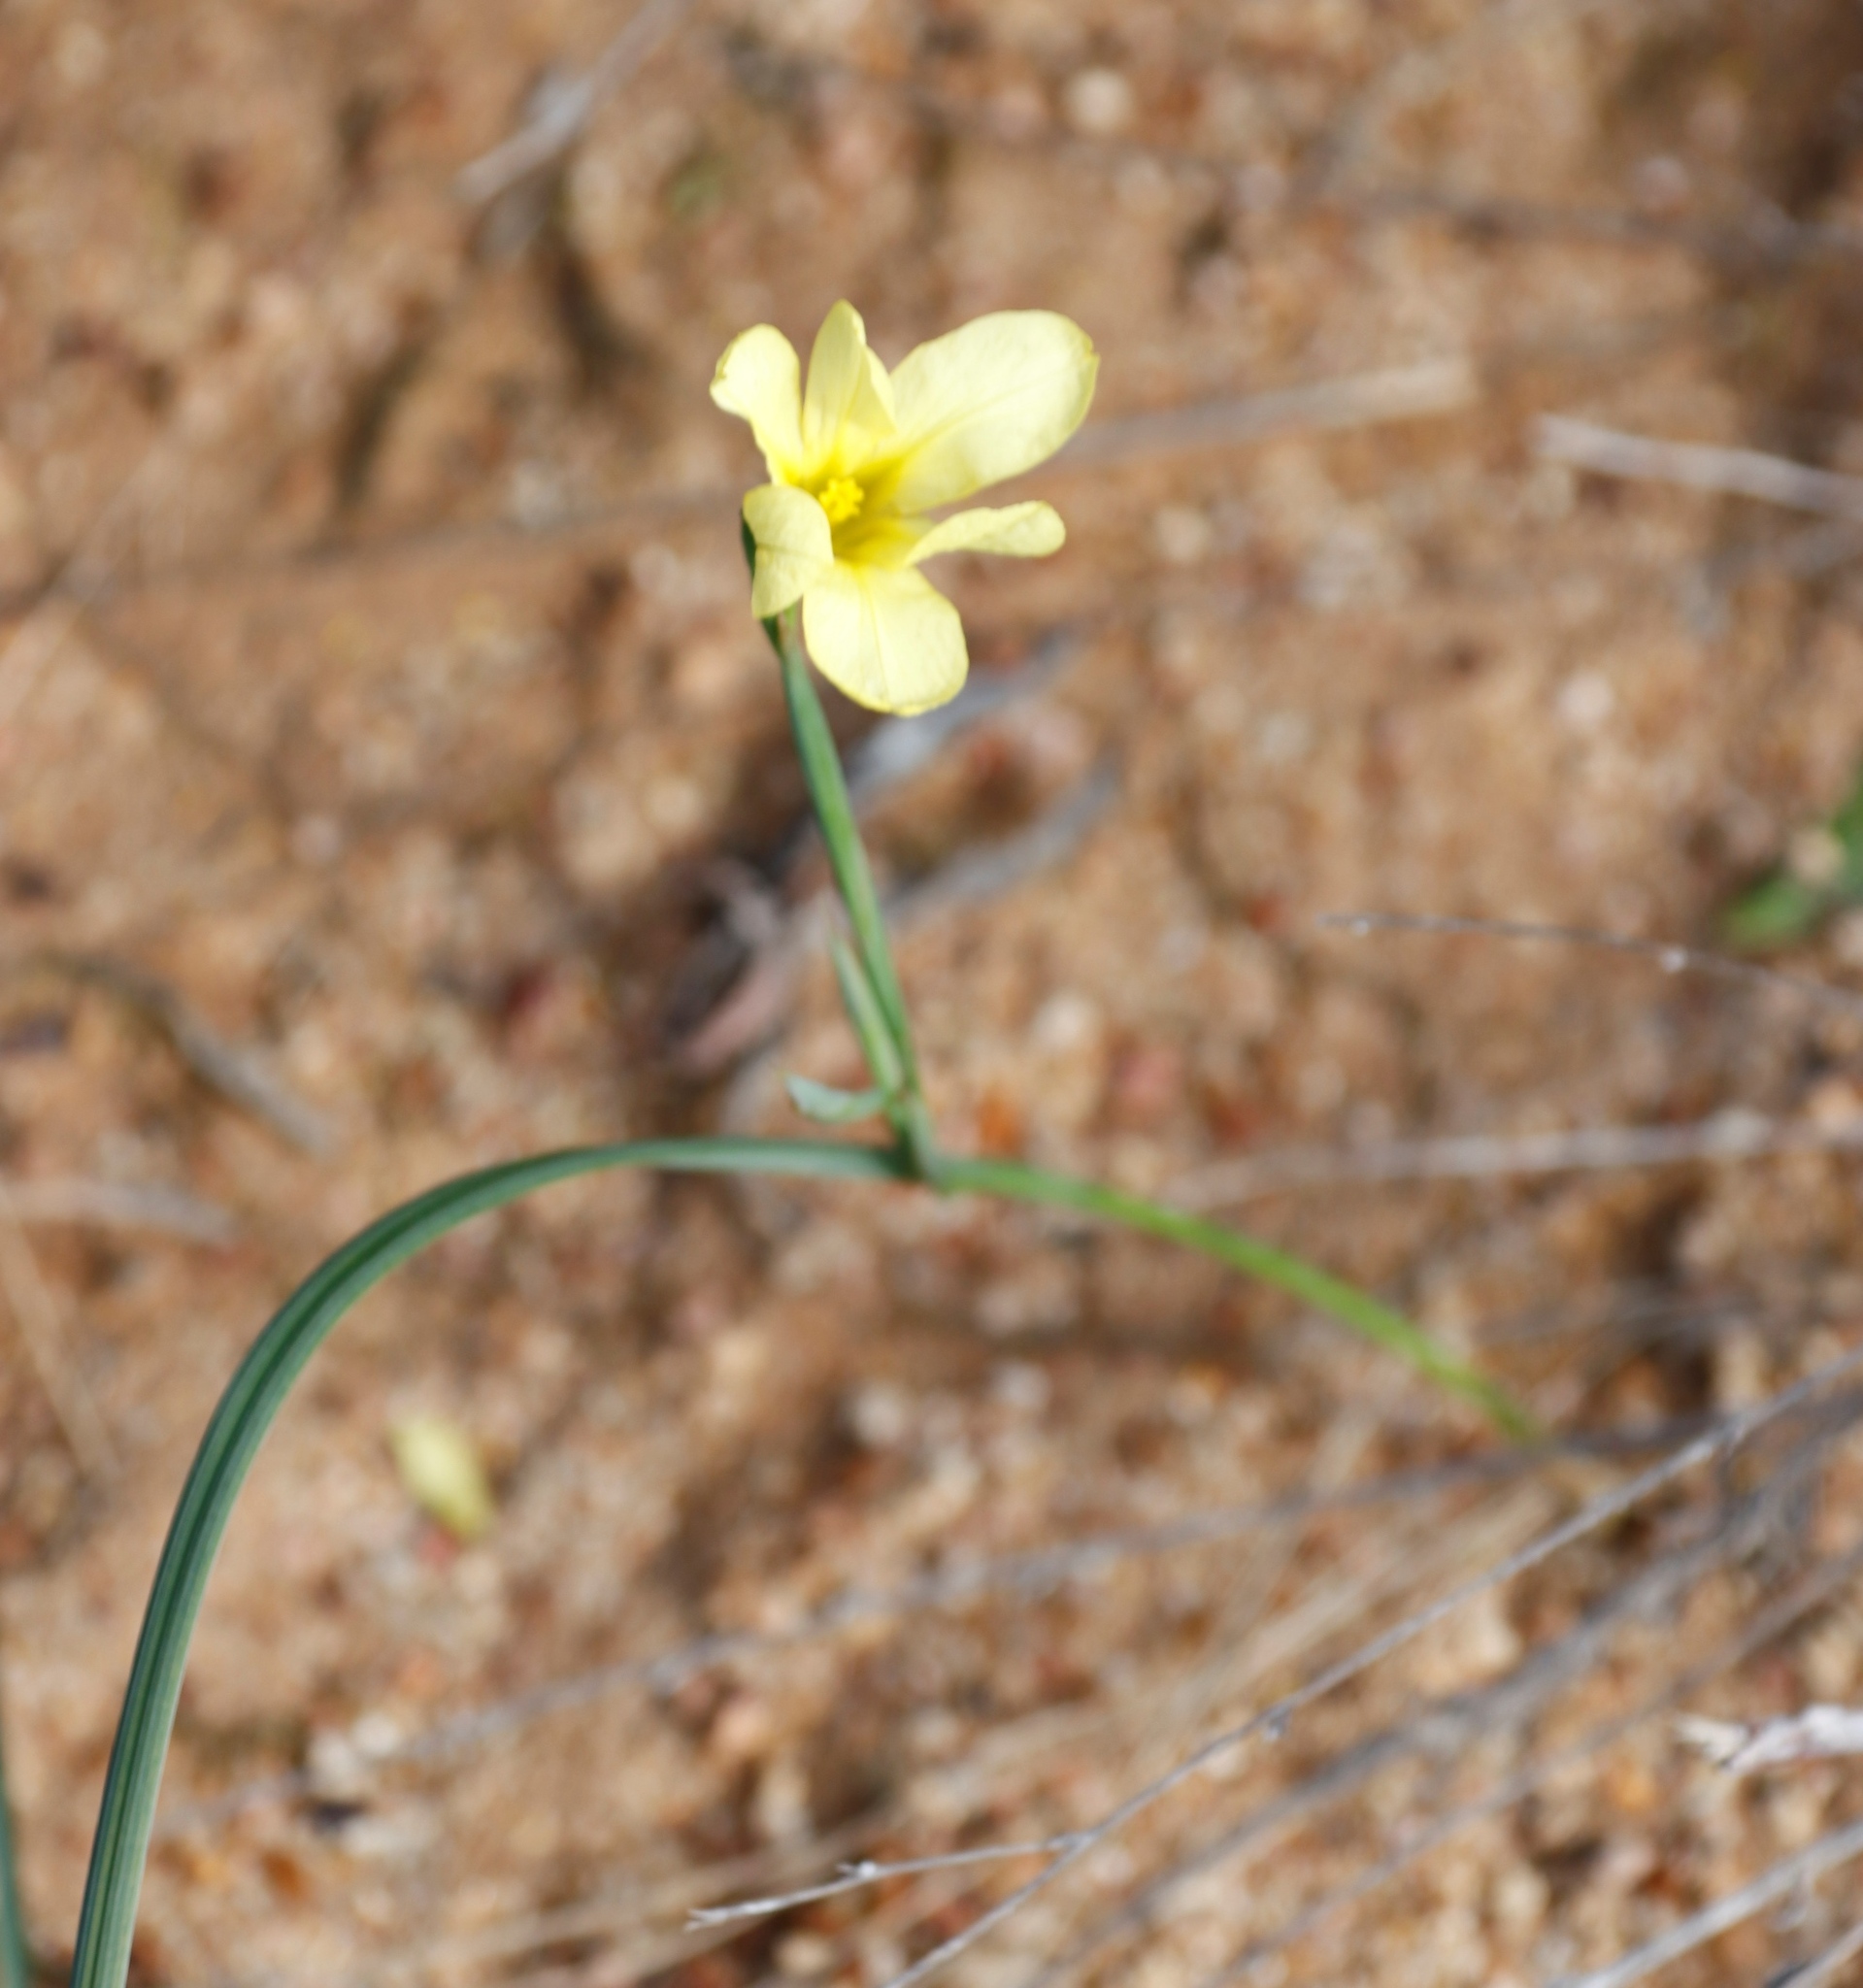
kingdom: Plantae
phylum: Tracheophyta
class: Liliopsida
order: Asparagales
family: Iridaceae
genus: Moraea
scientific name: Moraea collina
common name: Cape-tulip
